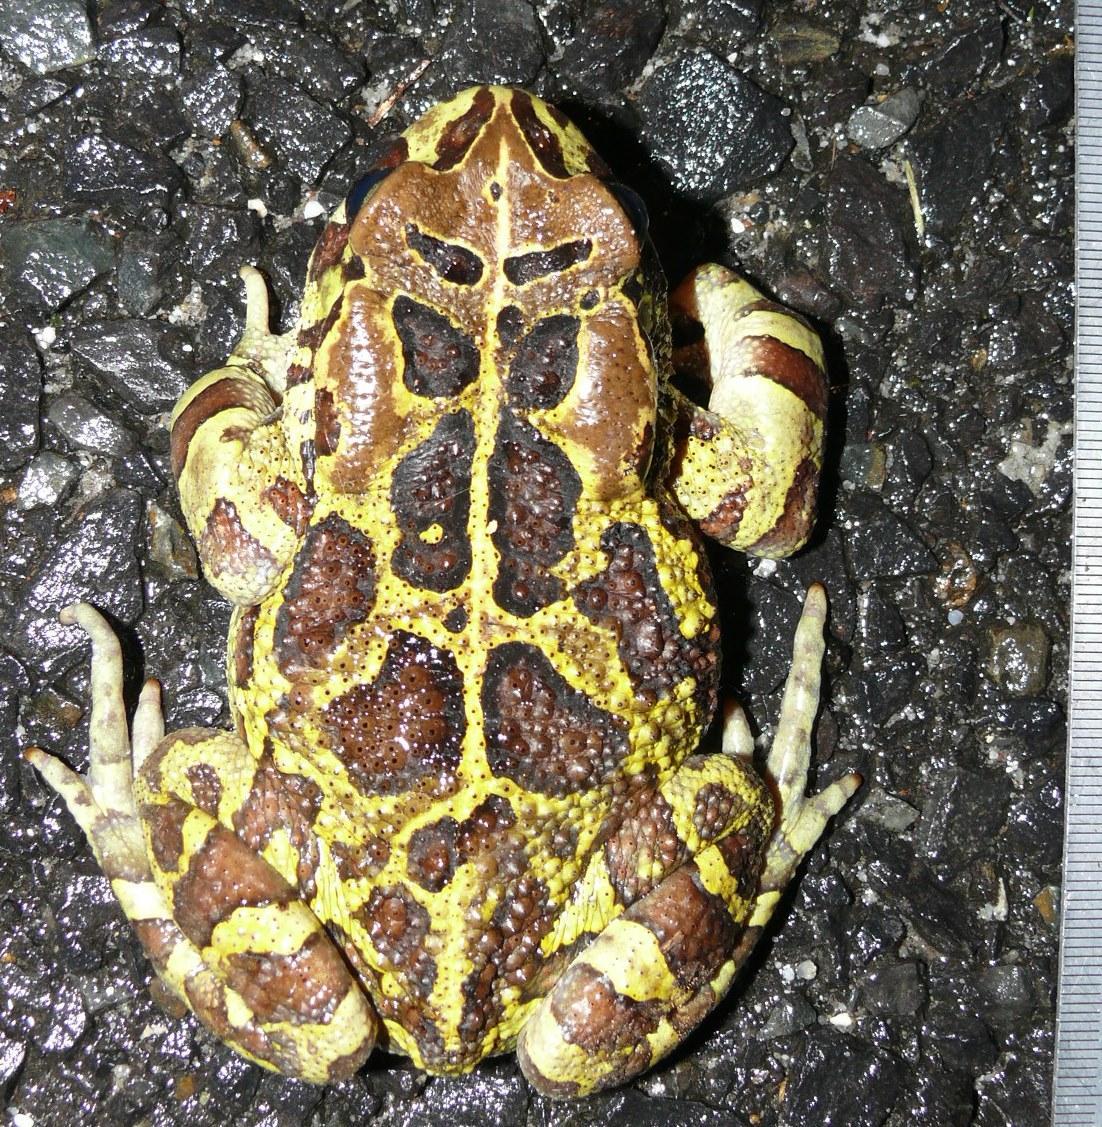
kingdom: Animalia
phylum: Chordata
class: Amphibia
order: Anura
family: Bufonidae
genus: Sclerophrys
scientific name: Sclerophrys pantherina
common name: Panther toad
